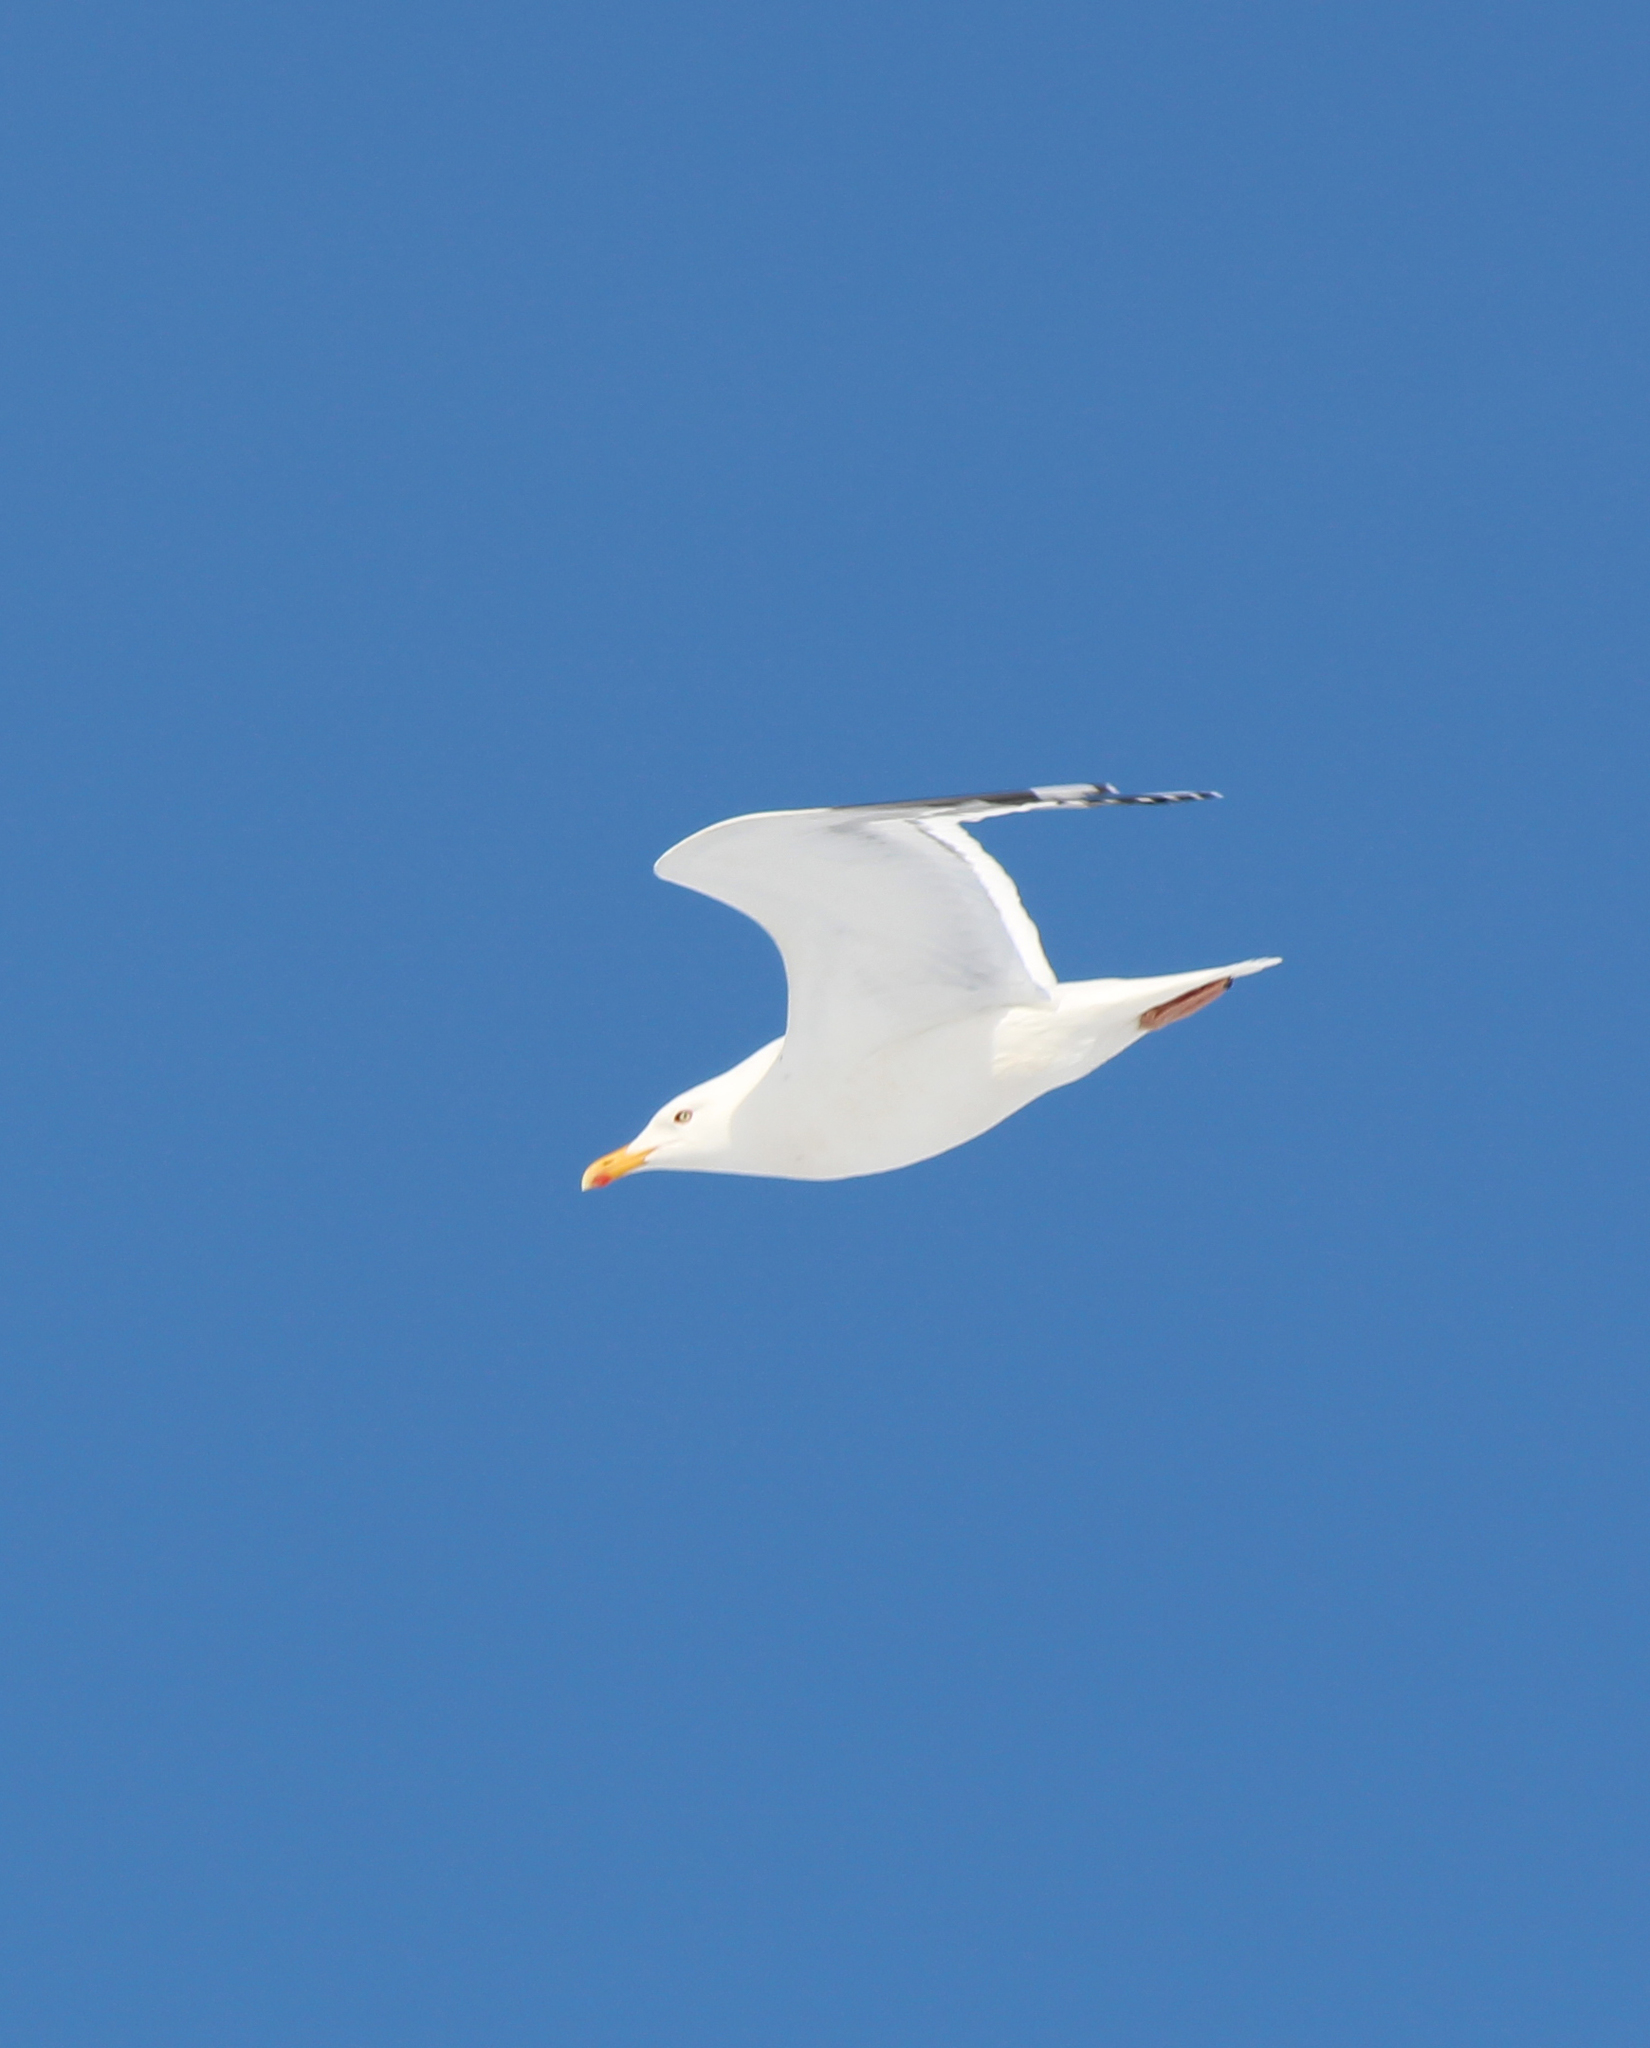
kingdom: Animalia
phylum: Chordata
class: Aves
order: Charadriiformes
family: Laridae
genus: Larus
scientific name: Larus vegae
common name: Vega gull
